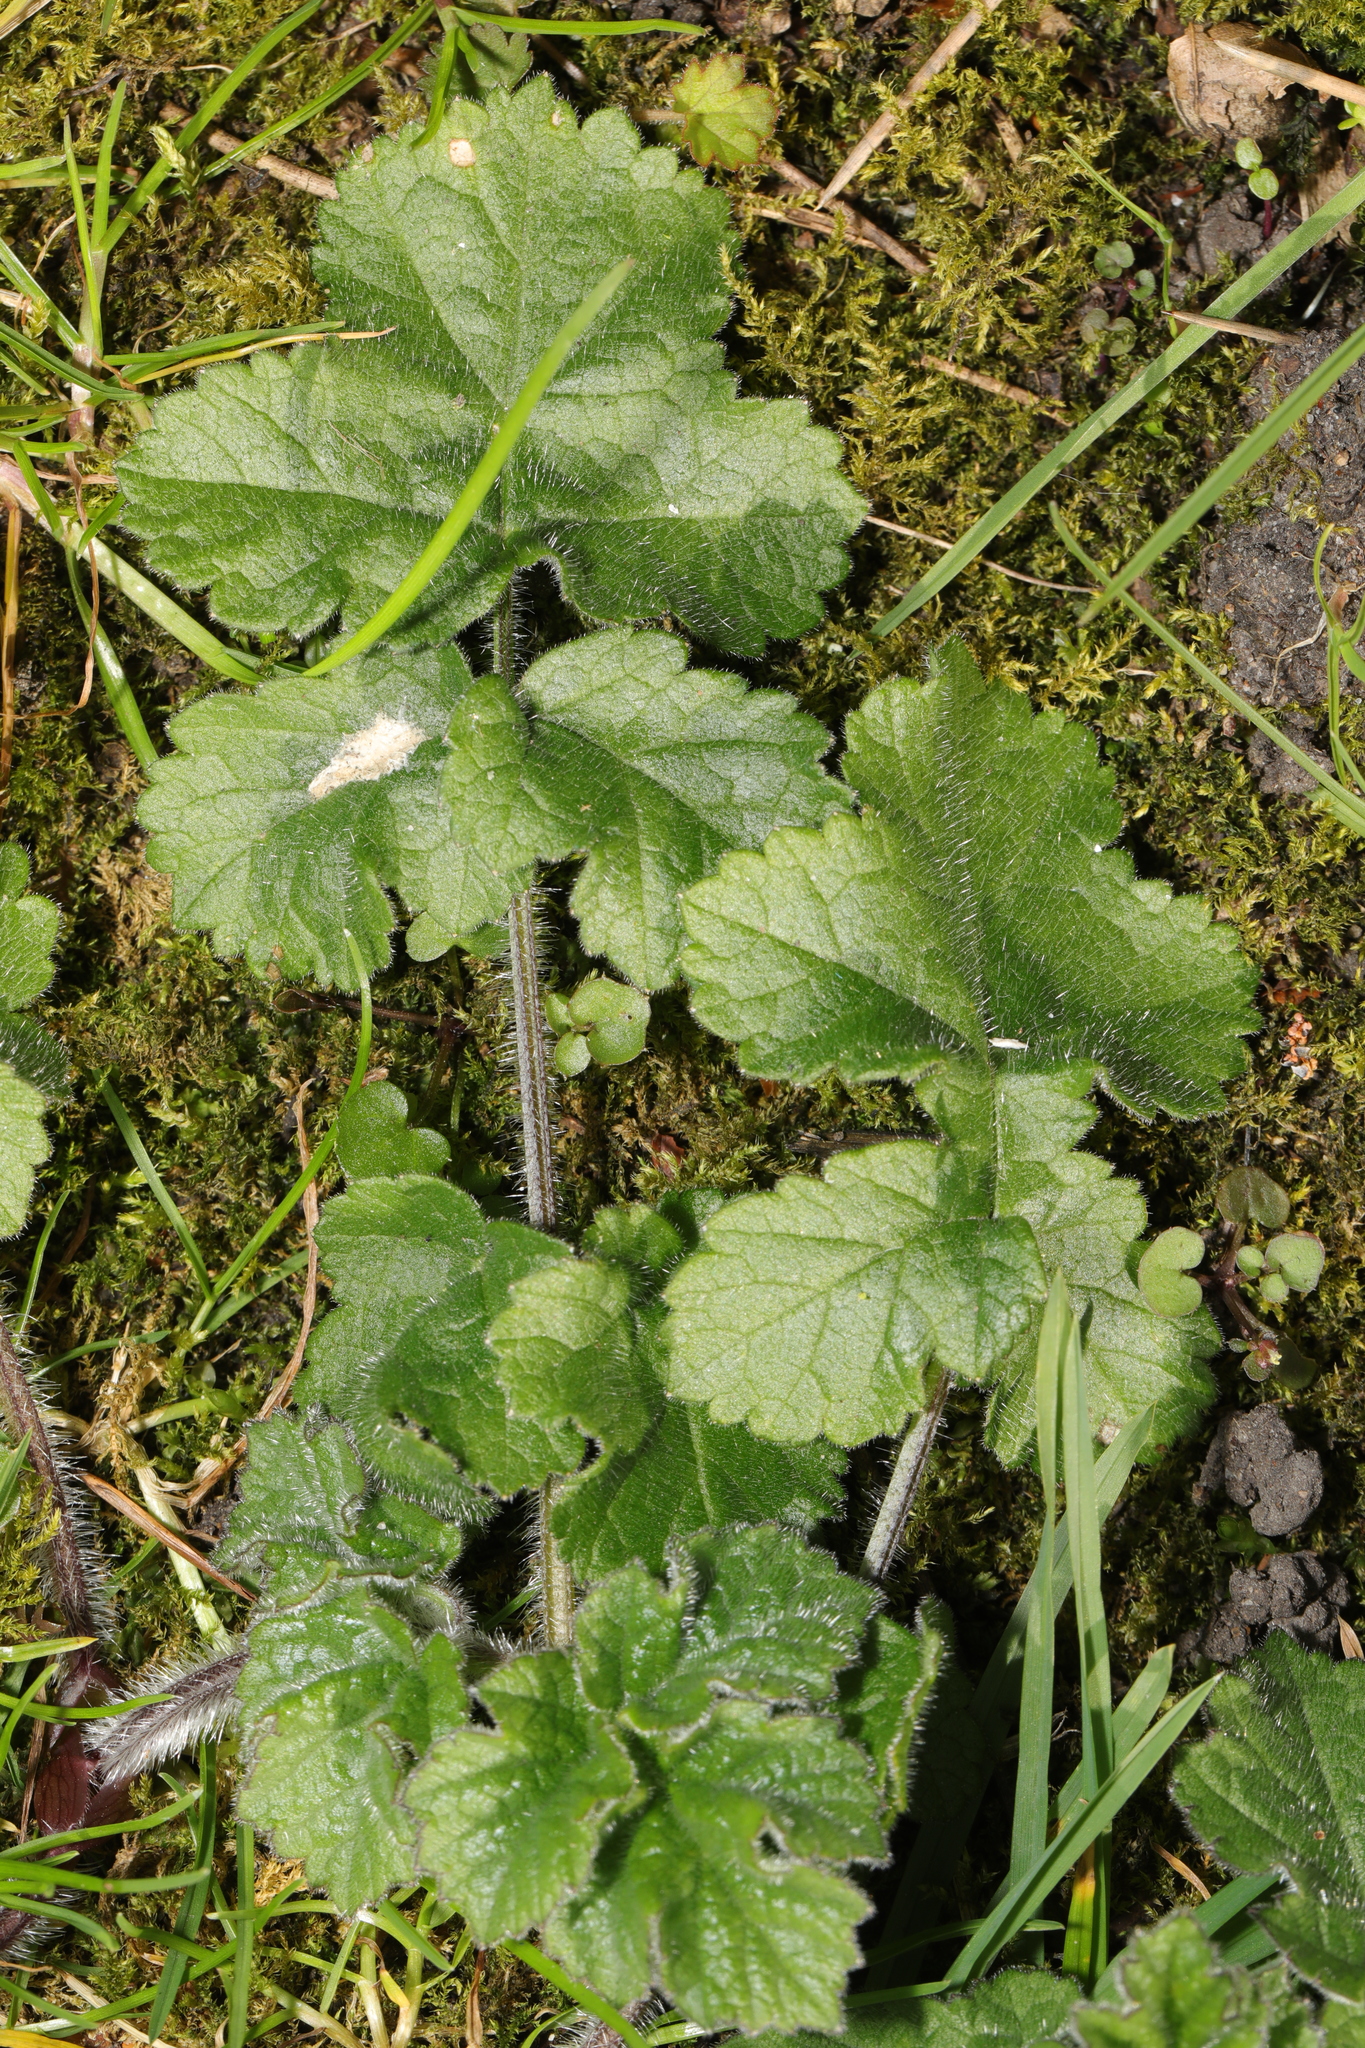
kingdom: Plantae
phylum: Tracheophyta
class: Magnoliopsida
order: Apiales
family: Apiaceae
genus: Heracleum
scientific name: Heracleum sphondylium
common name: Hogweed
